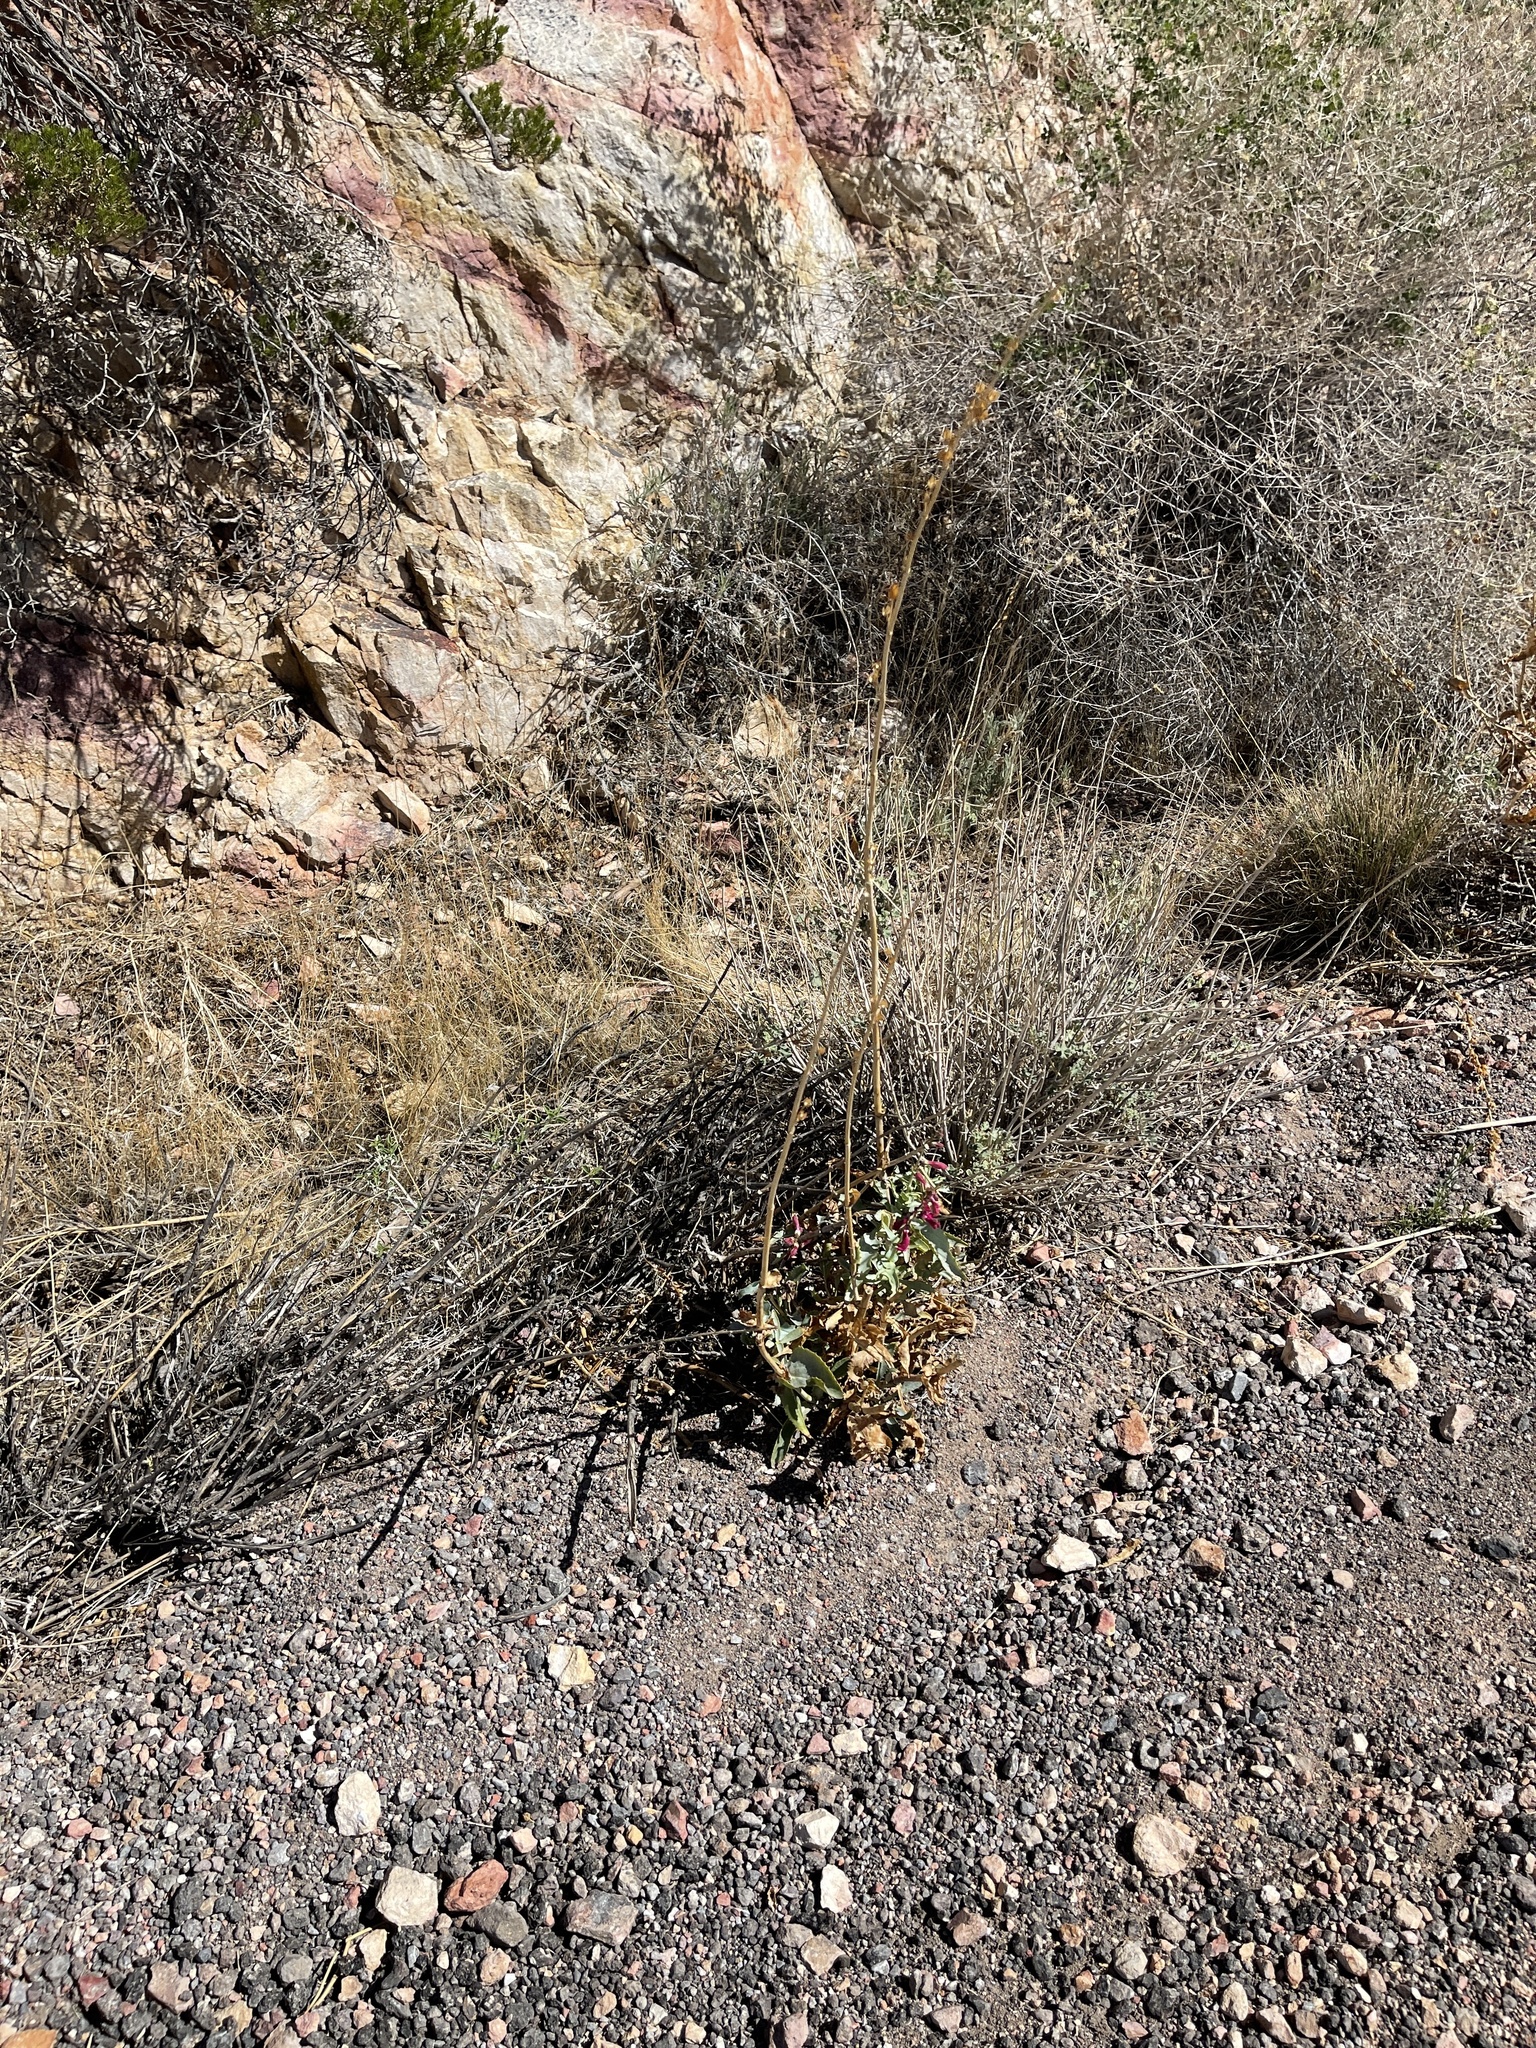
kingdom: Plantae
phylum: Tracheophyta
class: Magnoliopsida
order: Lamiales
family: Plantaginaceae
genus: Penstemon
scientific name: Penstemon bicolor
